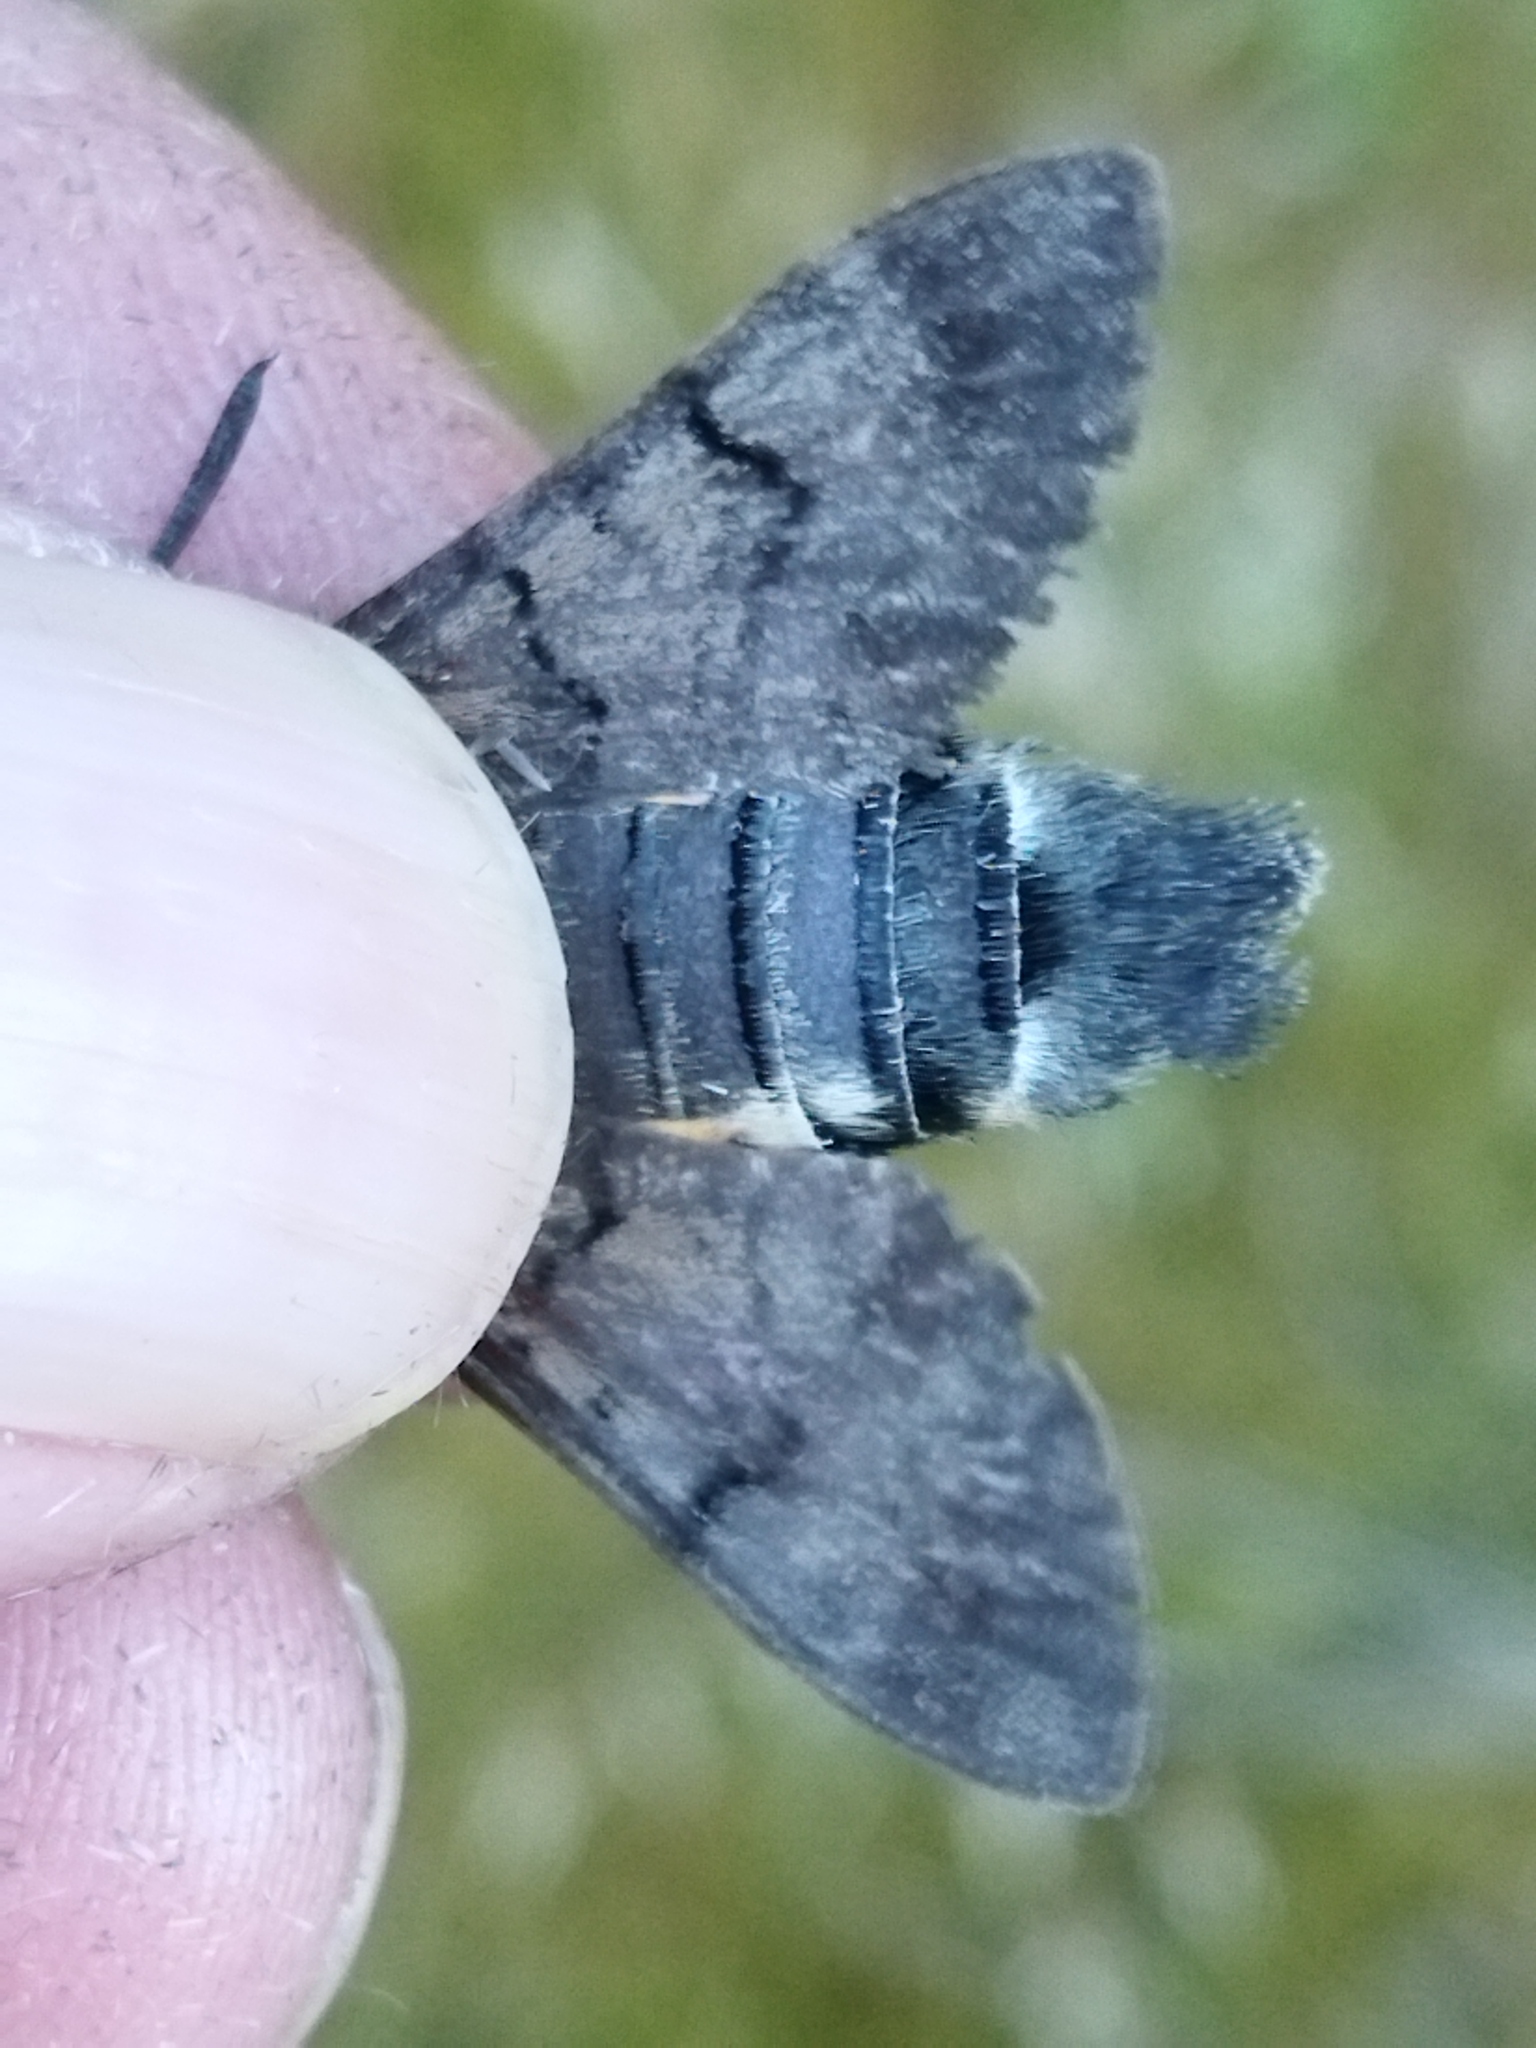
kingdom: Animalia
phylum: Arthropoda
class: Insecta
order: Lepidoptera
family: Sphingidae
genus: Macroglossum
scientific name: Macroglossum stellatarum
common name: Humming-bird hawk-moth
